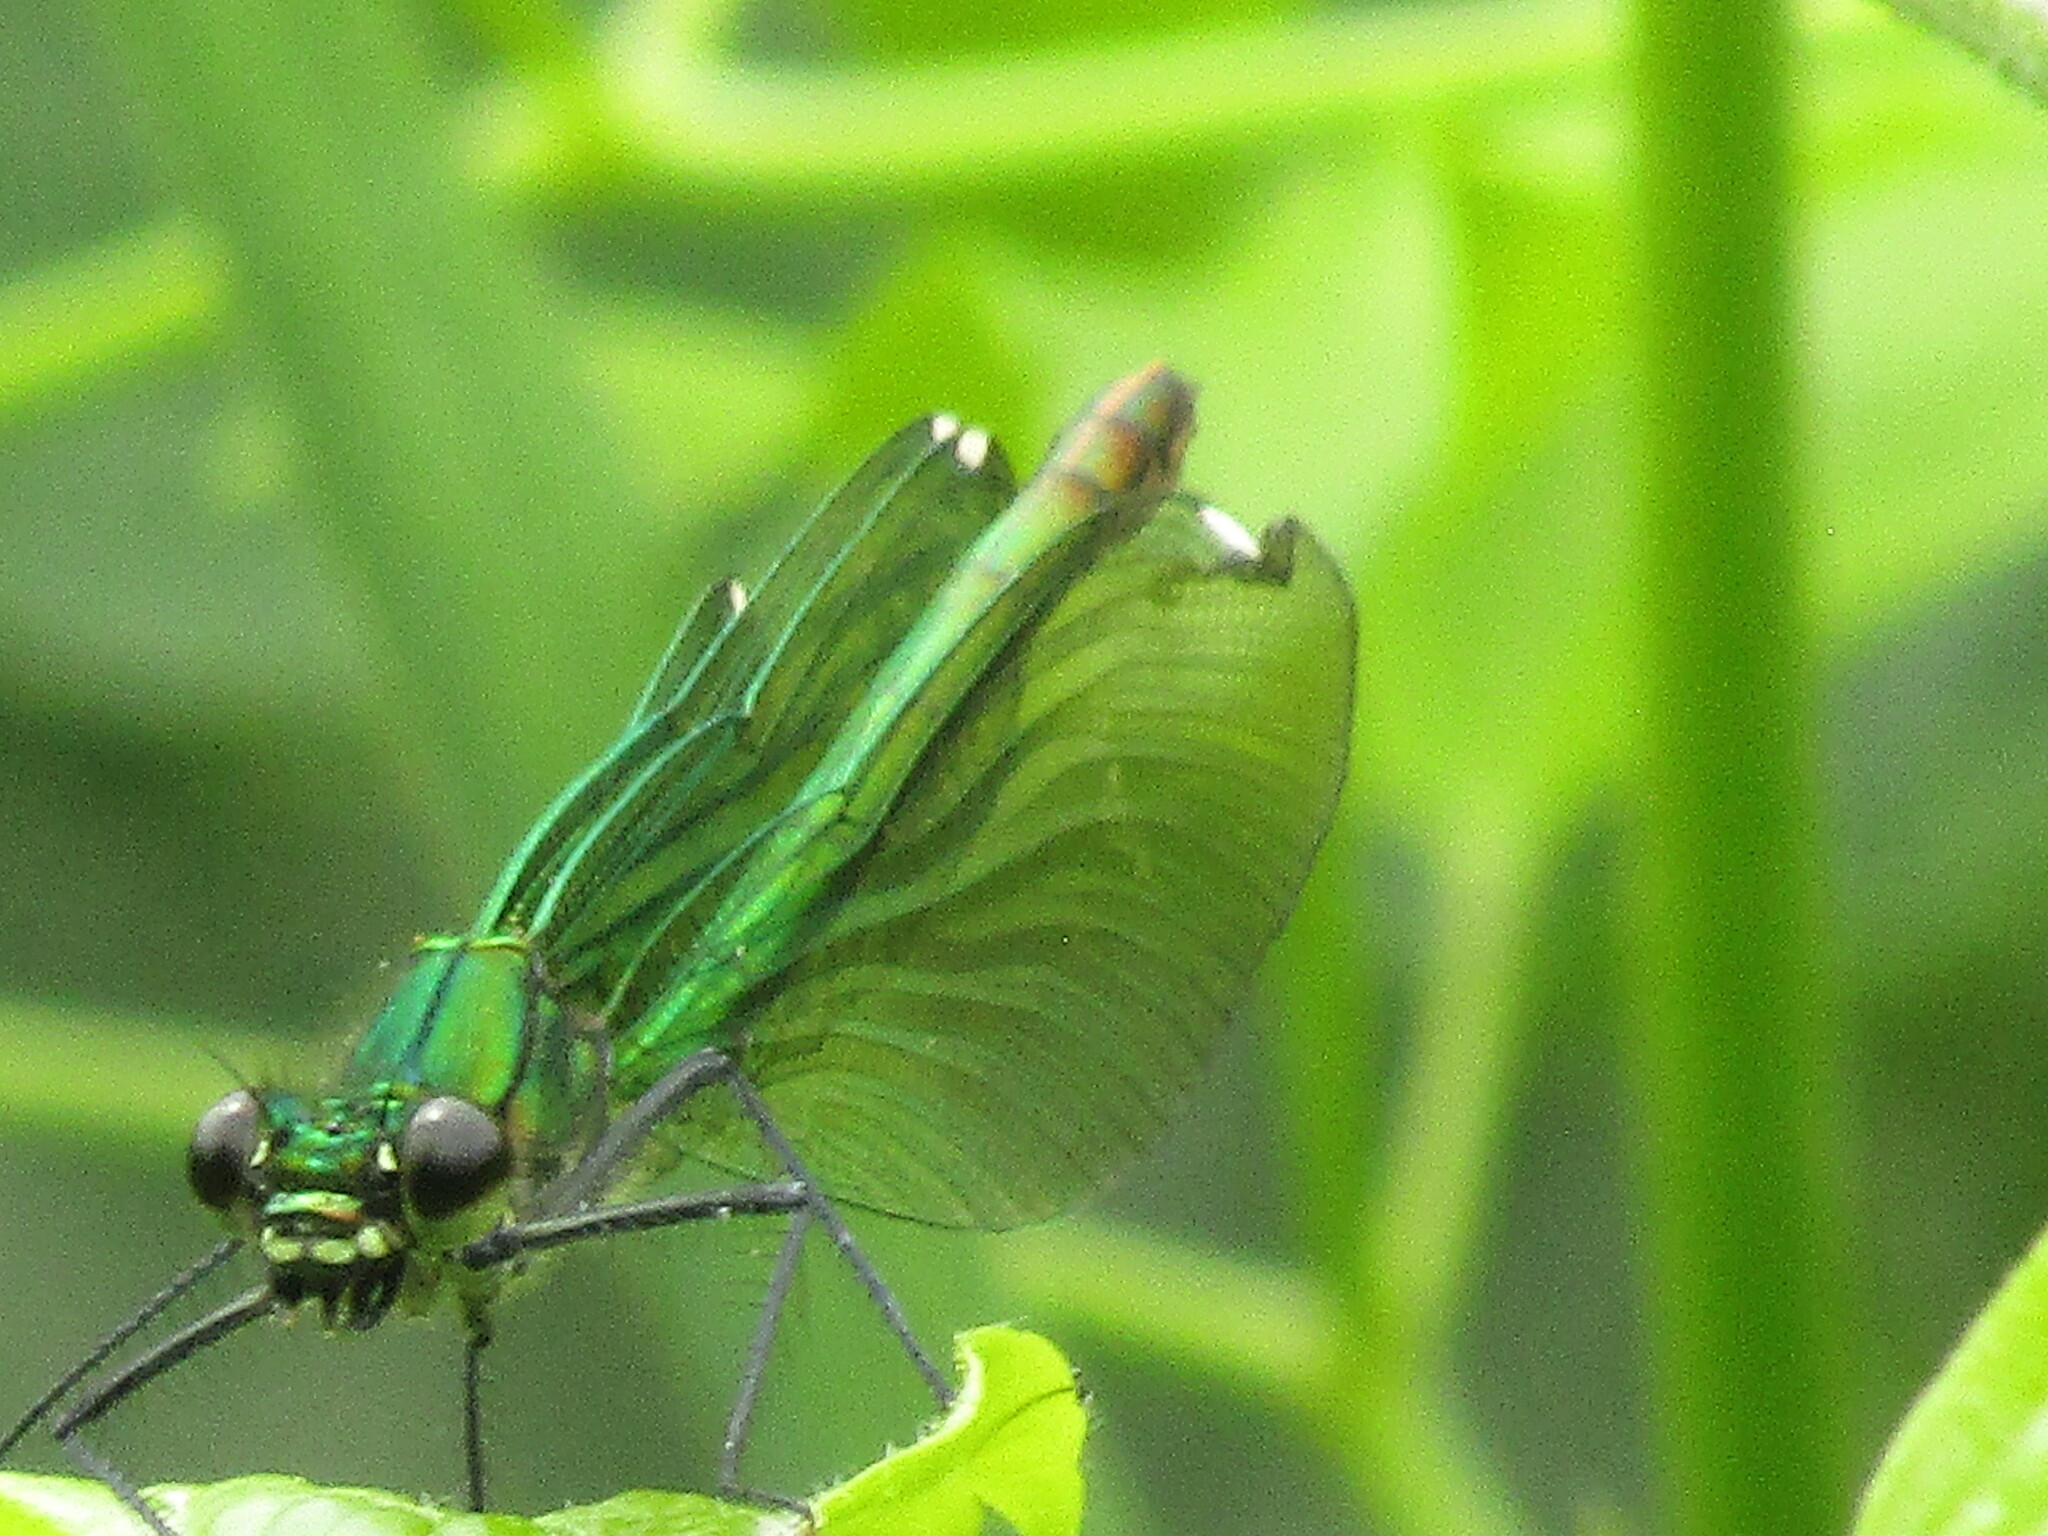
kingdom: Animalia
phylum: Arthropoda
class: Insecta
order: Odonata
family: Calopterygidae
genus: Calopteryx
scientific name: Calopteryx splendens
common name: Banded demoiselle
